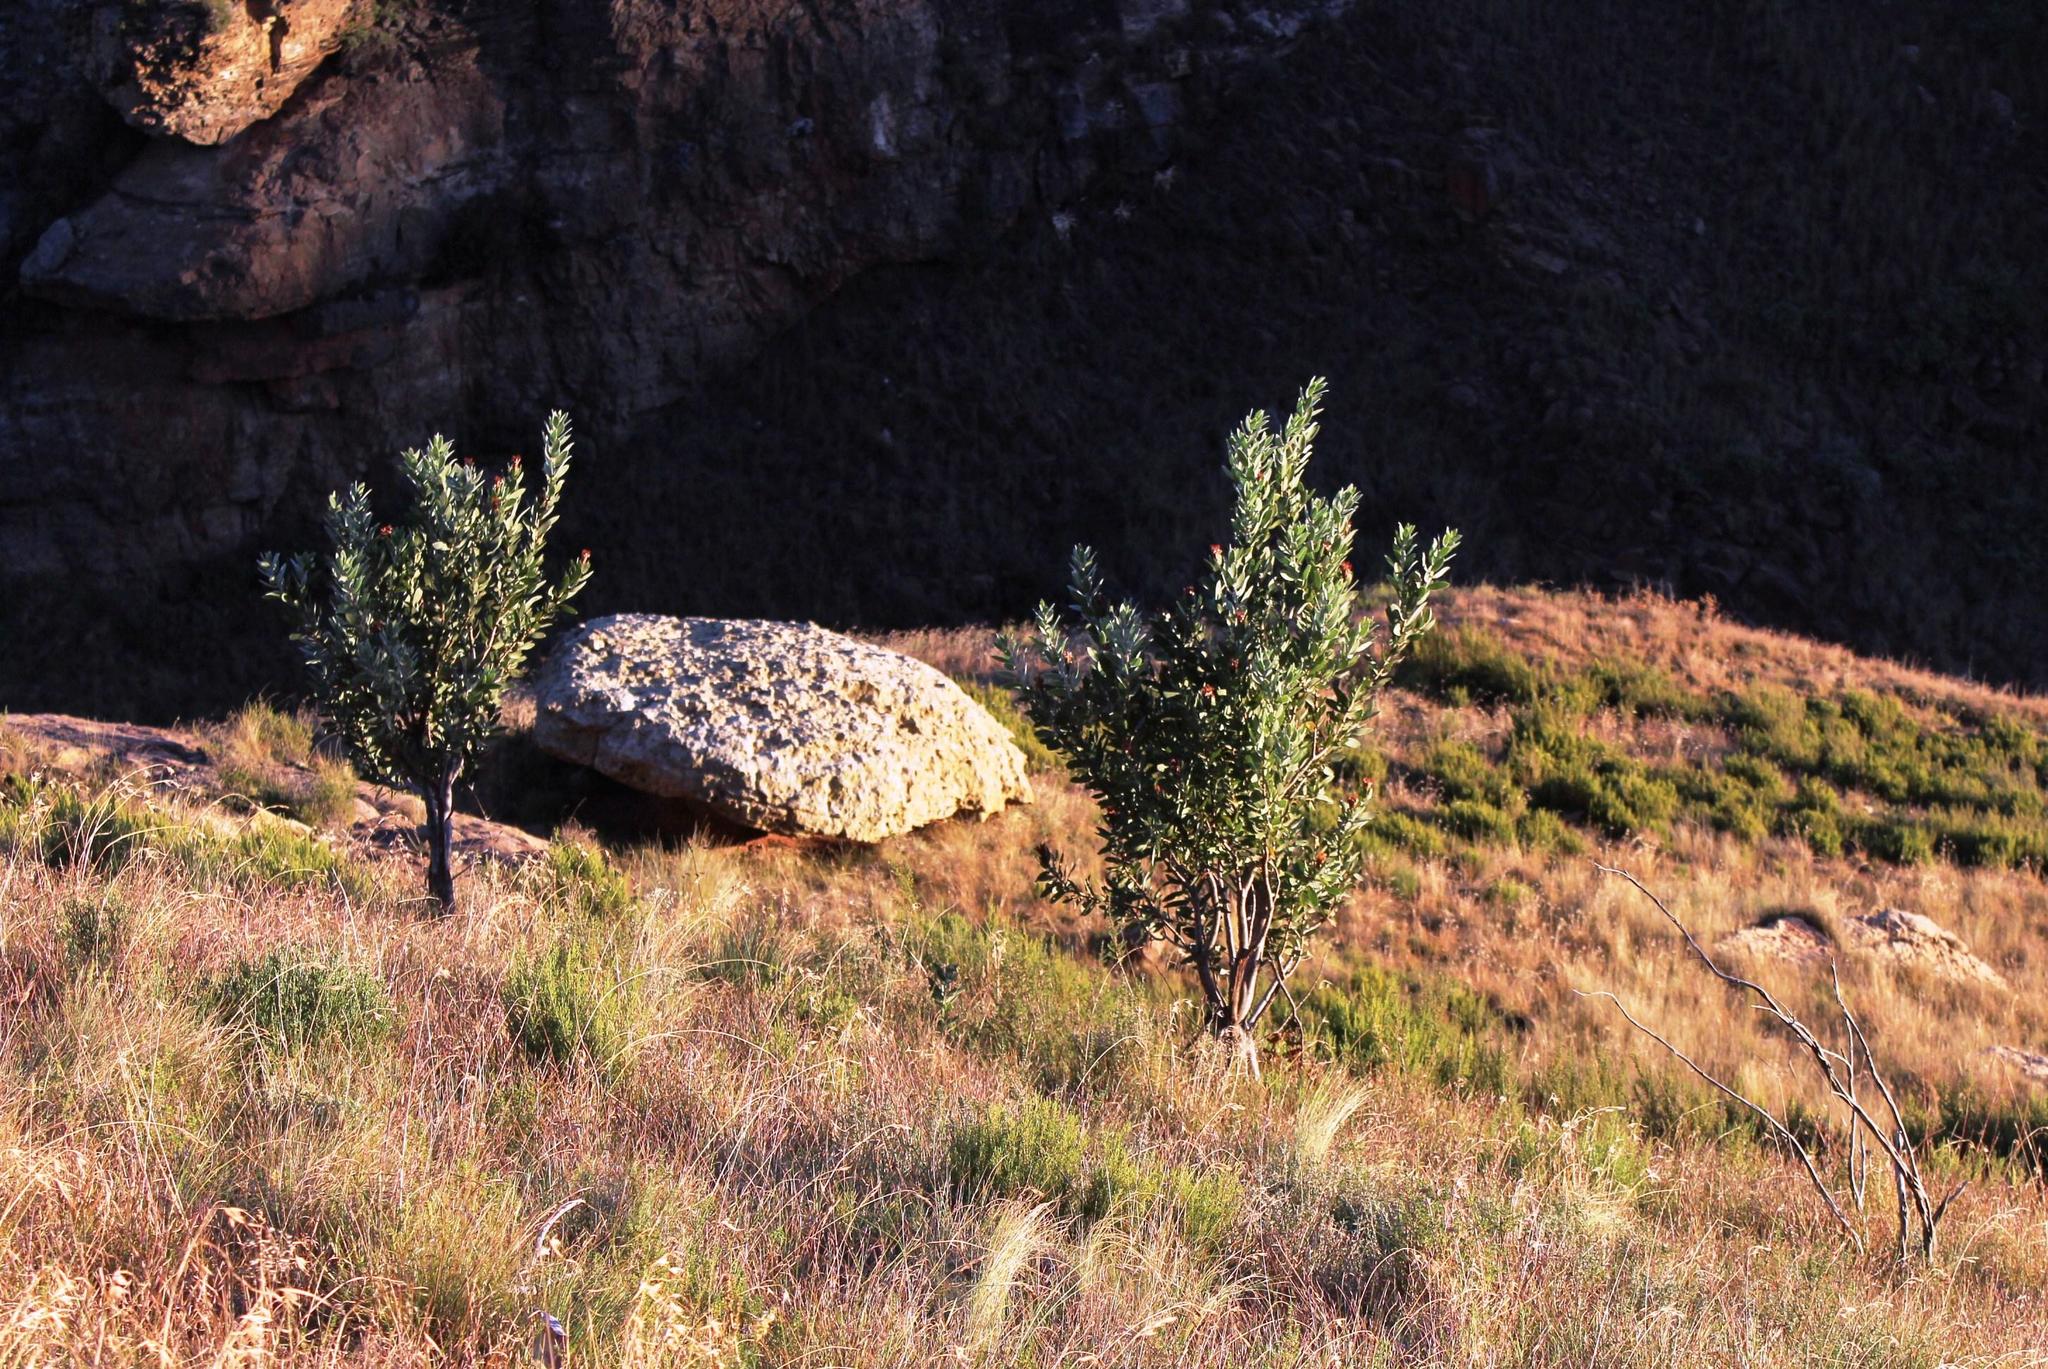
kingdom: Plantae
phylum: Tracheophyta
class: Magnoliopsida
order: Proteales
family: Proteaceae
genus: Protea
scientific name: Protea subvestita
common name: Lip-flower sugarbush
